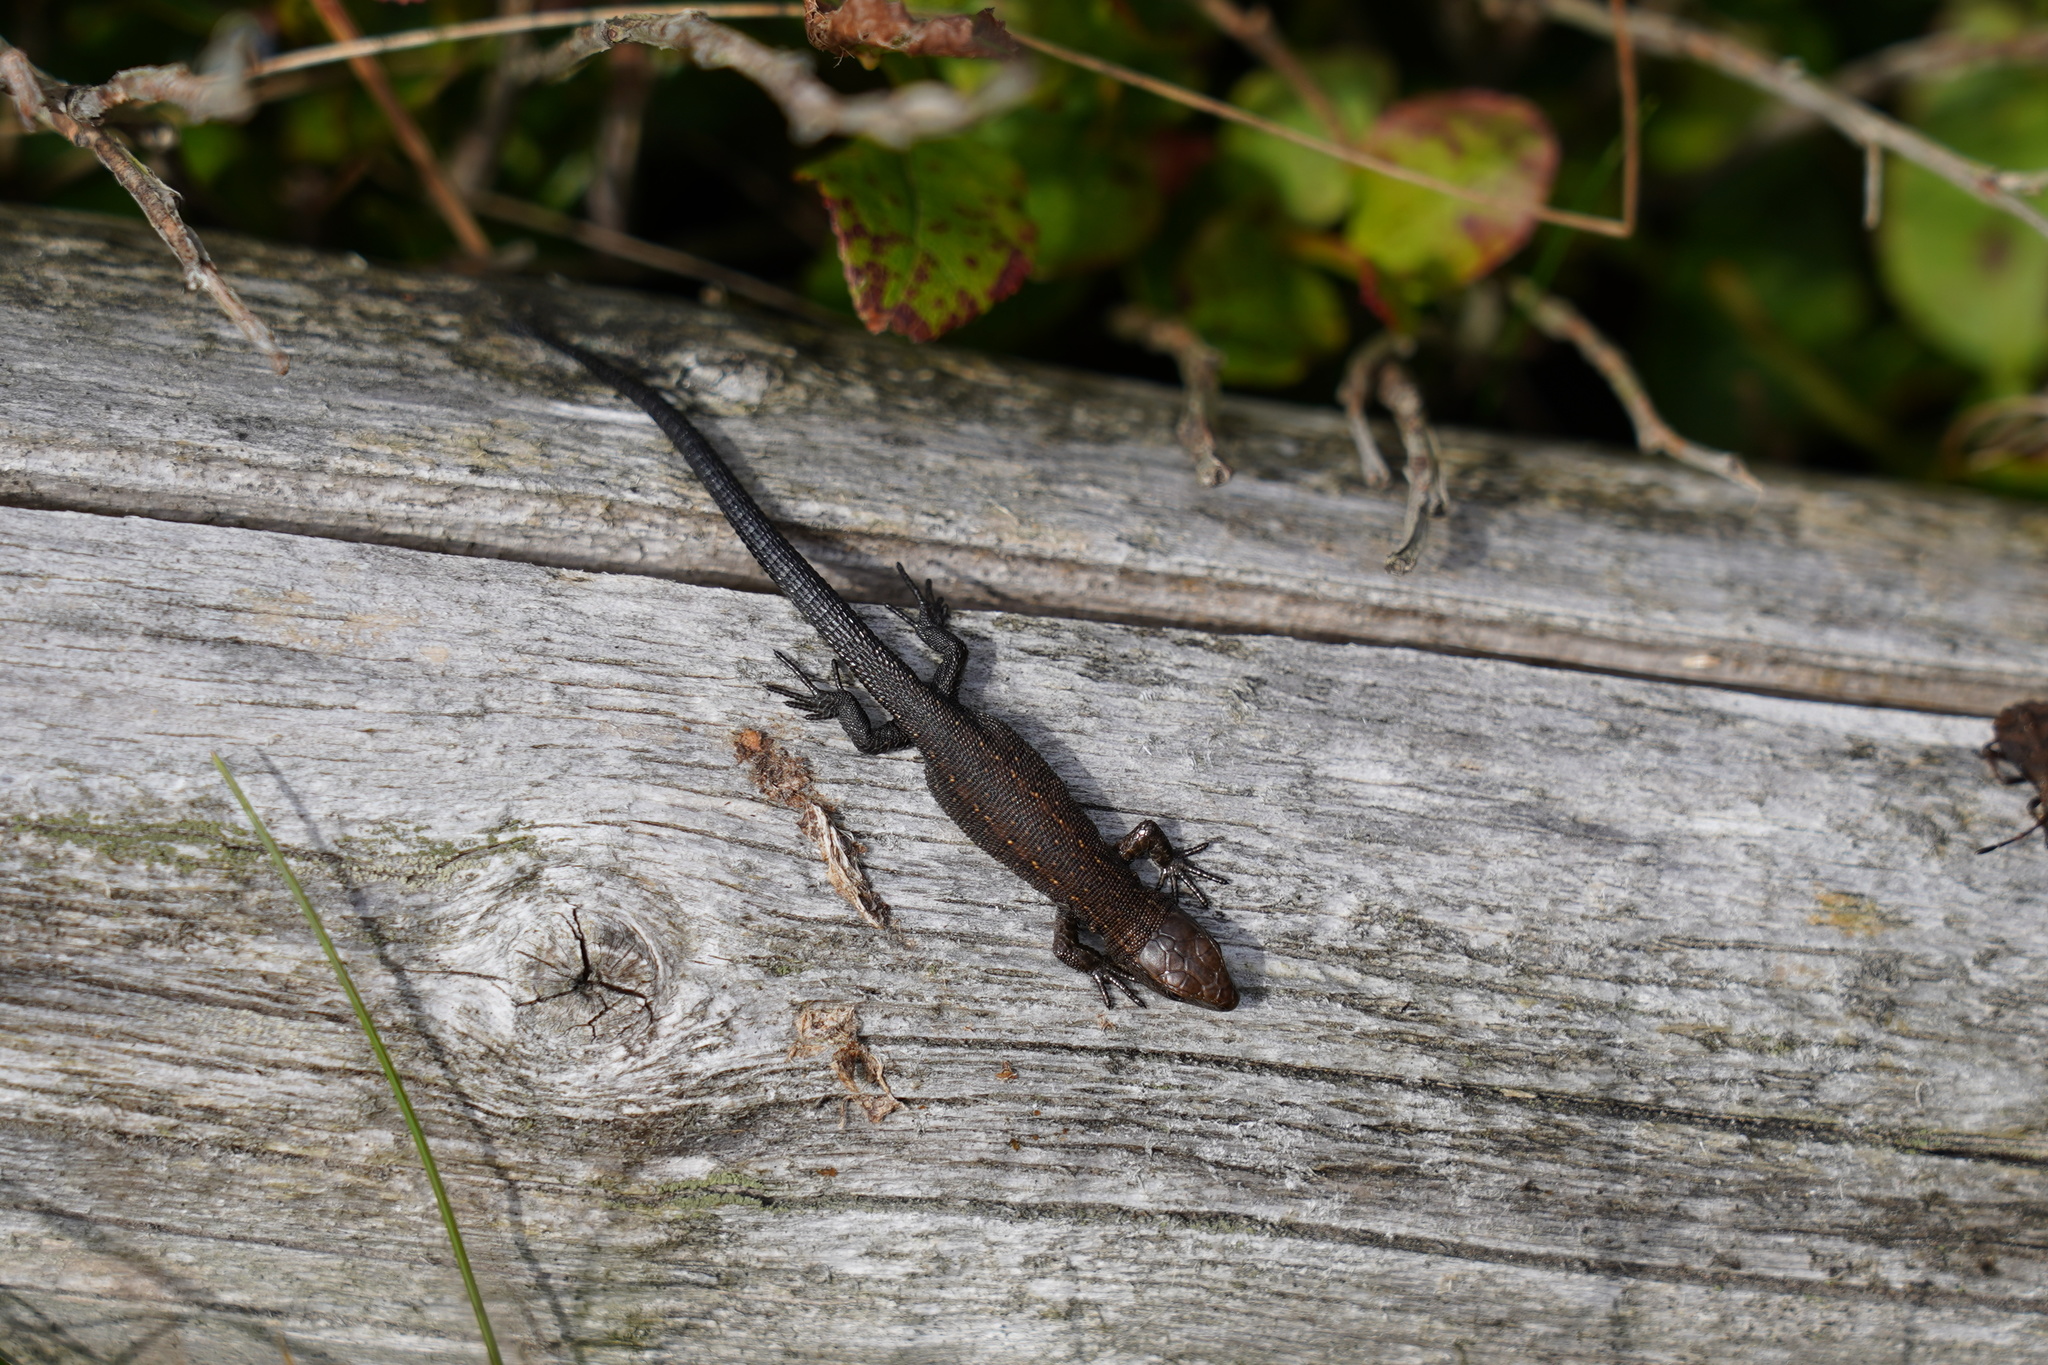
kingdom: Animalia
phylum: Chordata
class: Squamata
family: Lacertidae
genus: Zootoca
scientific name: Zootoca vivipara
